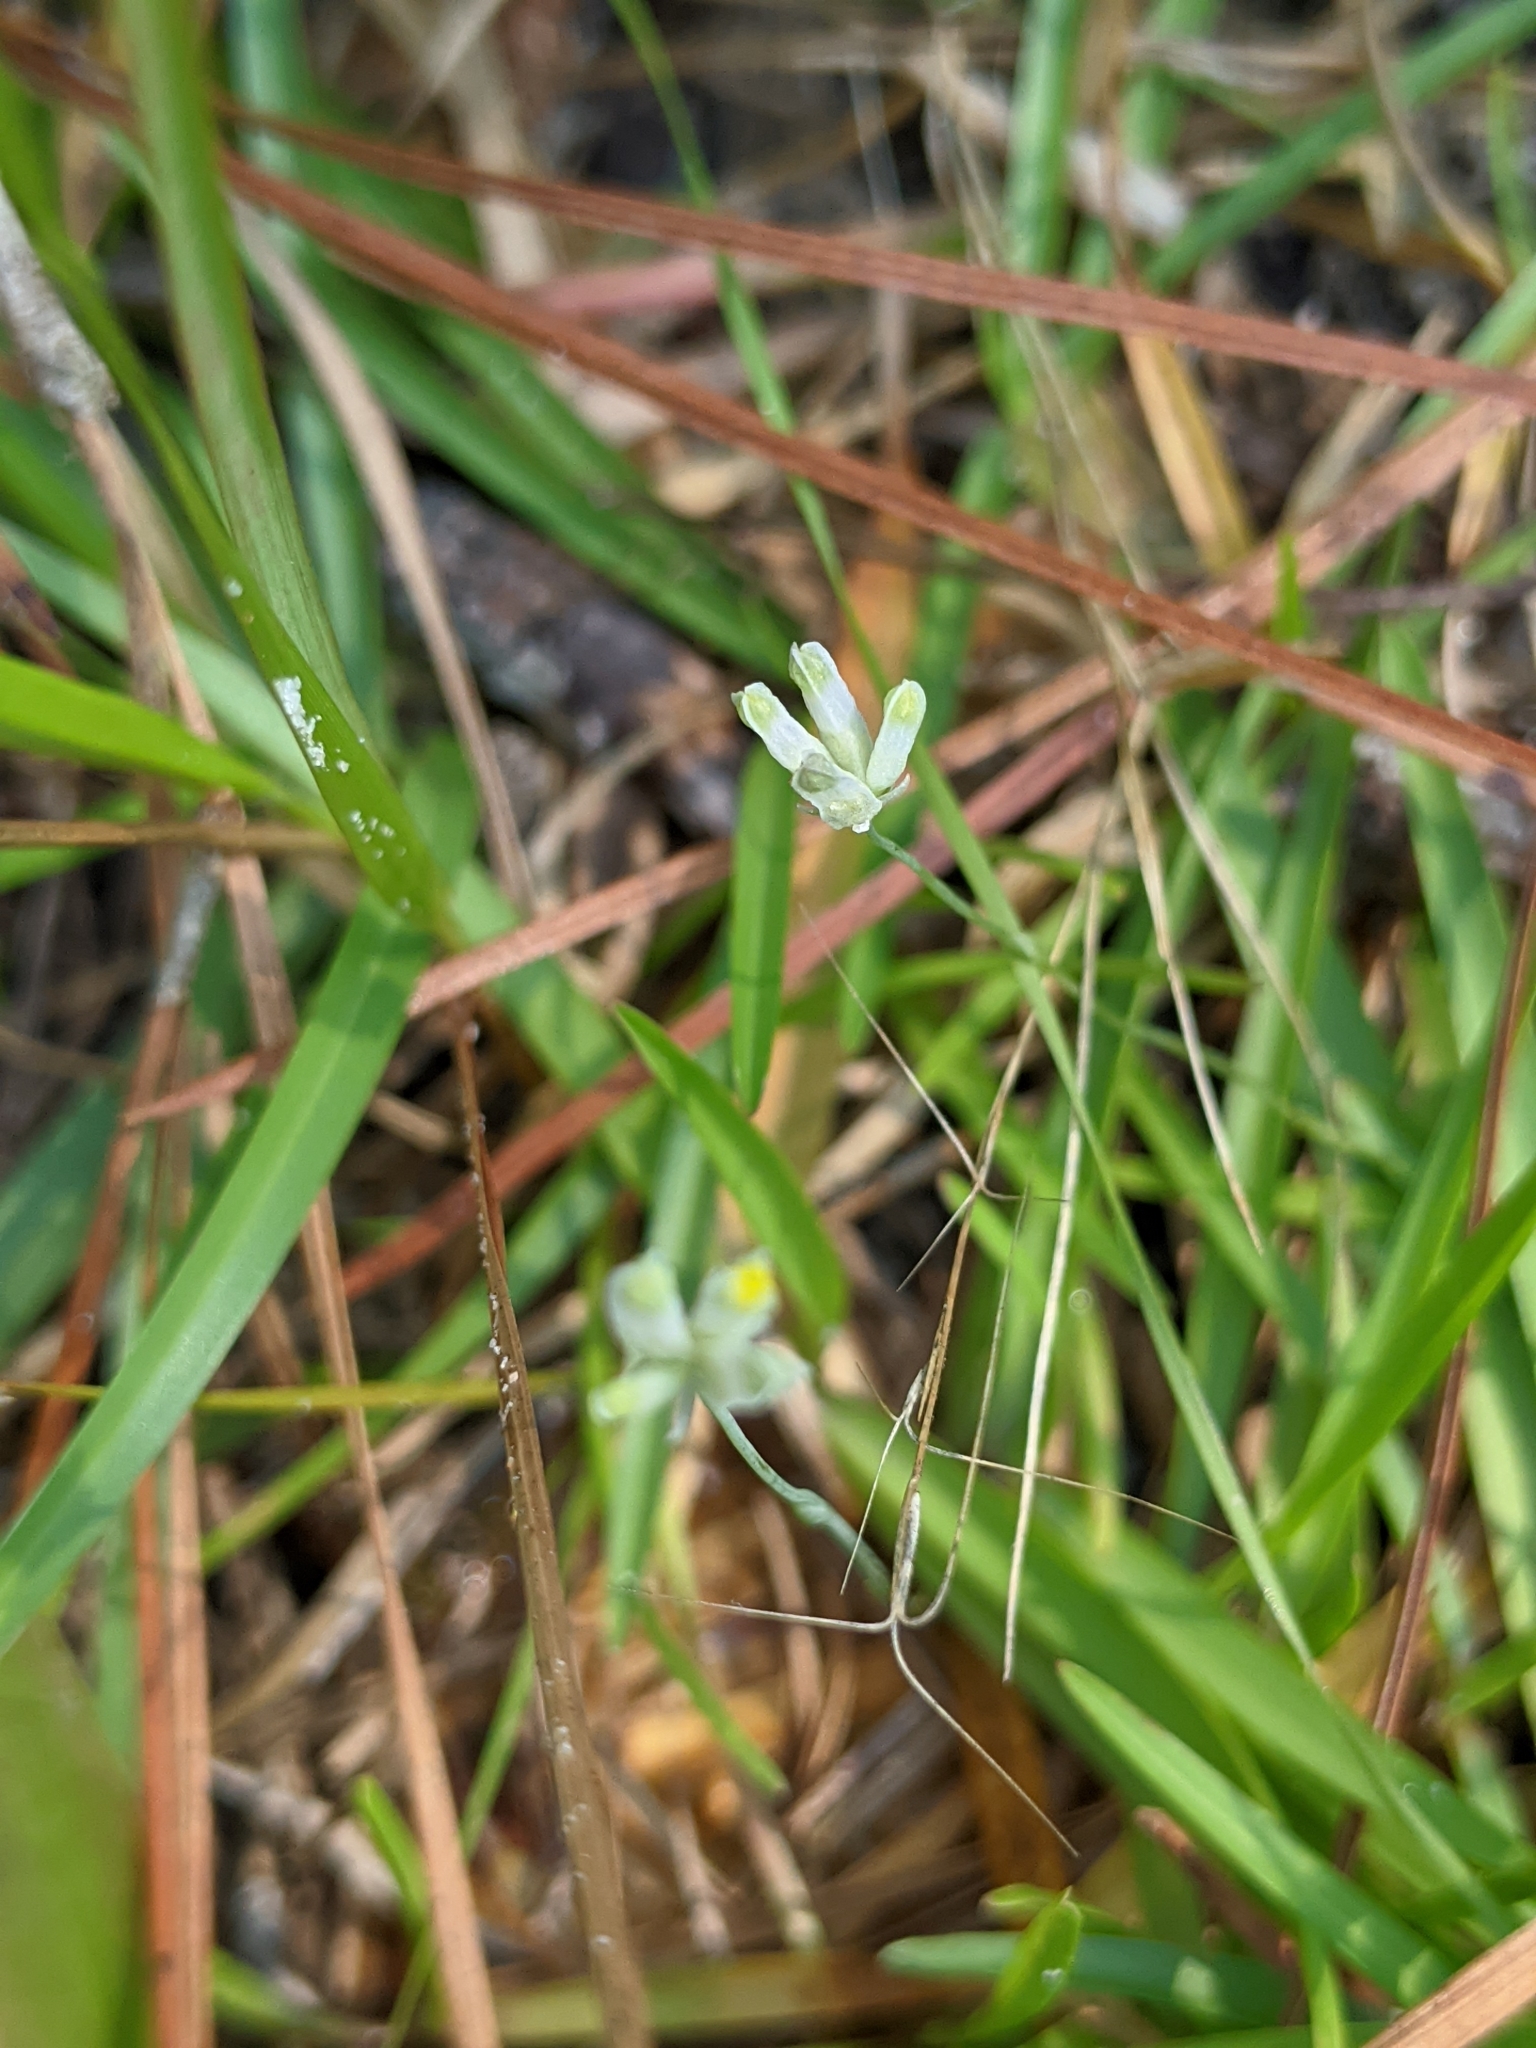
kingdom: Plantae
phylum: Tracheophyta
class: Liliopsida
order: Dioscoreales
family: Burmanniaceae
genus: Burmannia
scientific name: Burmannia capitata
